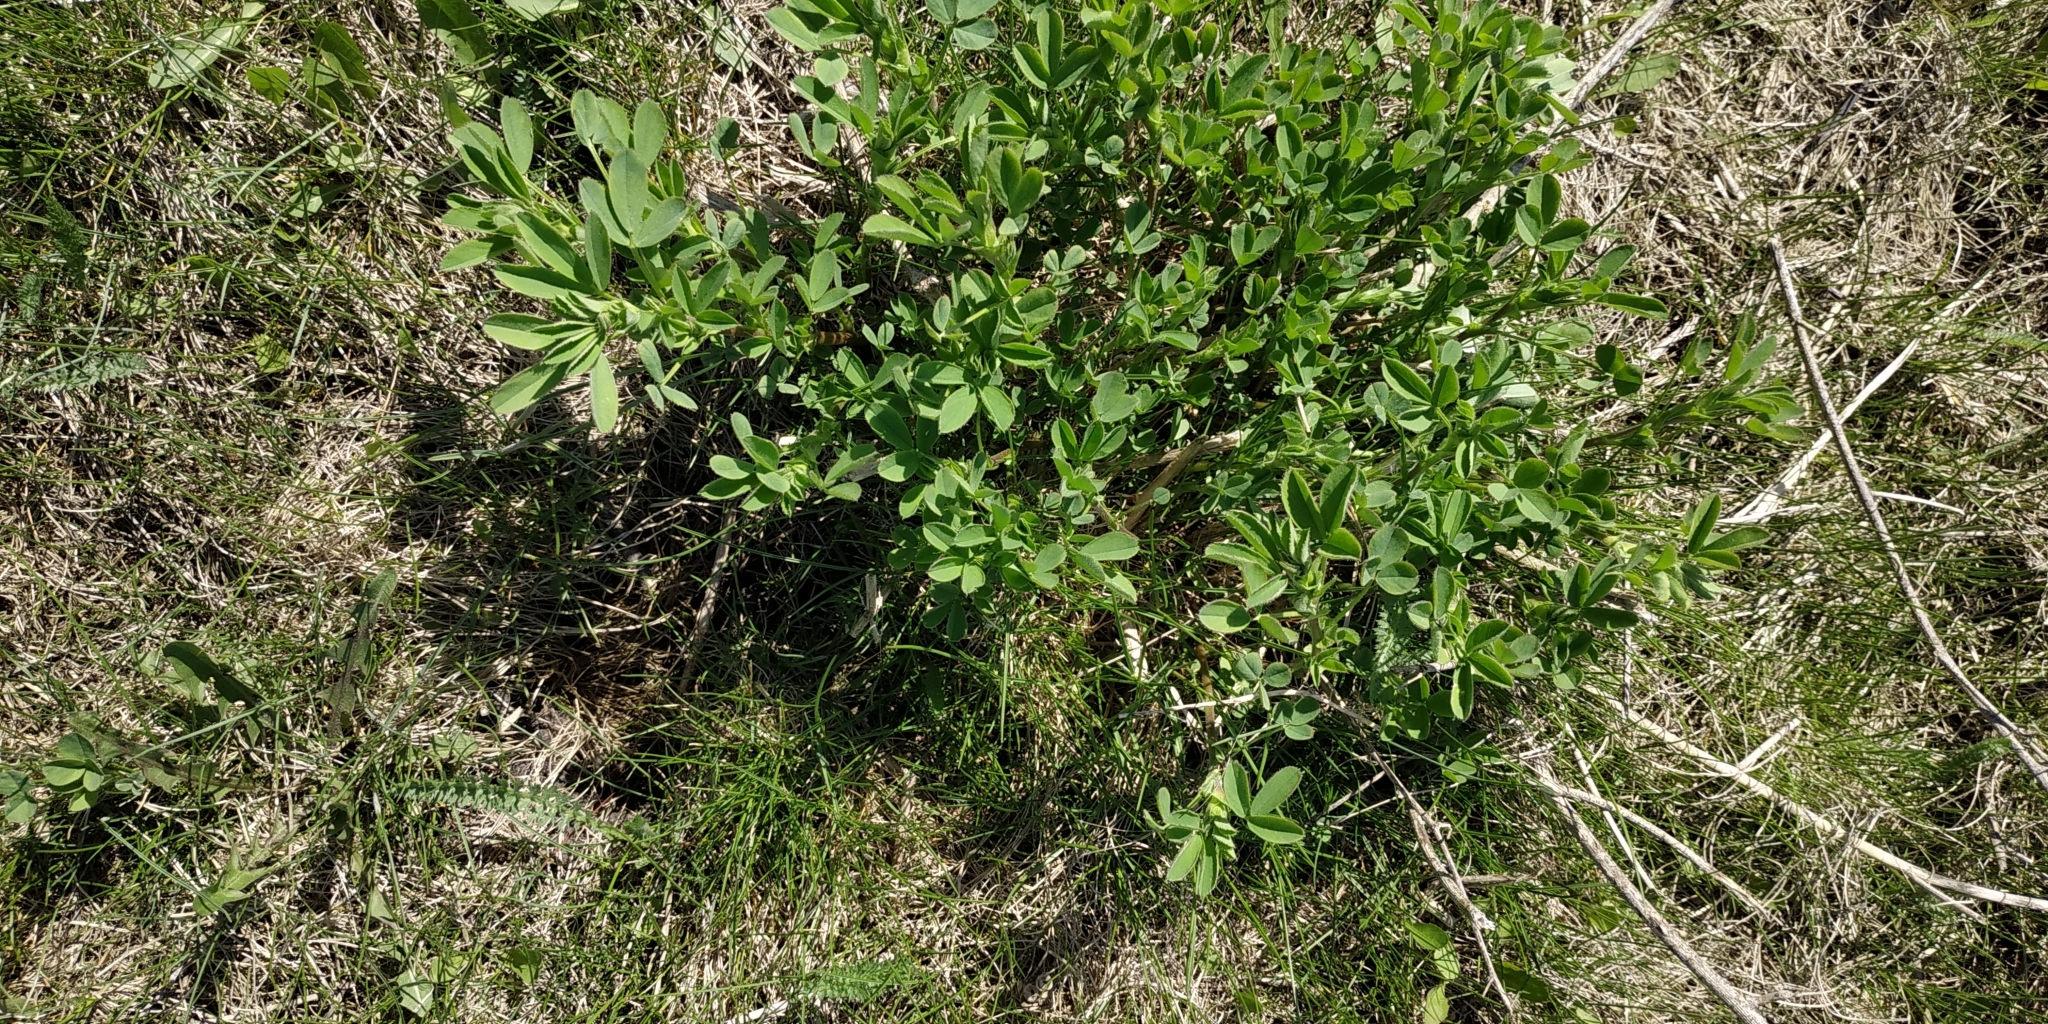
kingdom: Plantae
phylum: Tracheophyta
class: Magnoliopsida
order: Fabales
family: Fabaceae
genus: Medicago
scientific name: Medicago falcata
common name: Sickle medick
